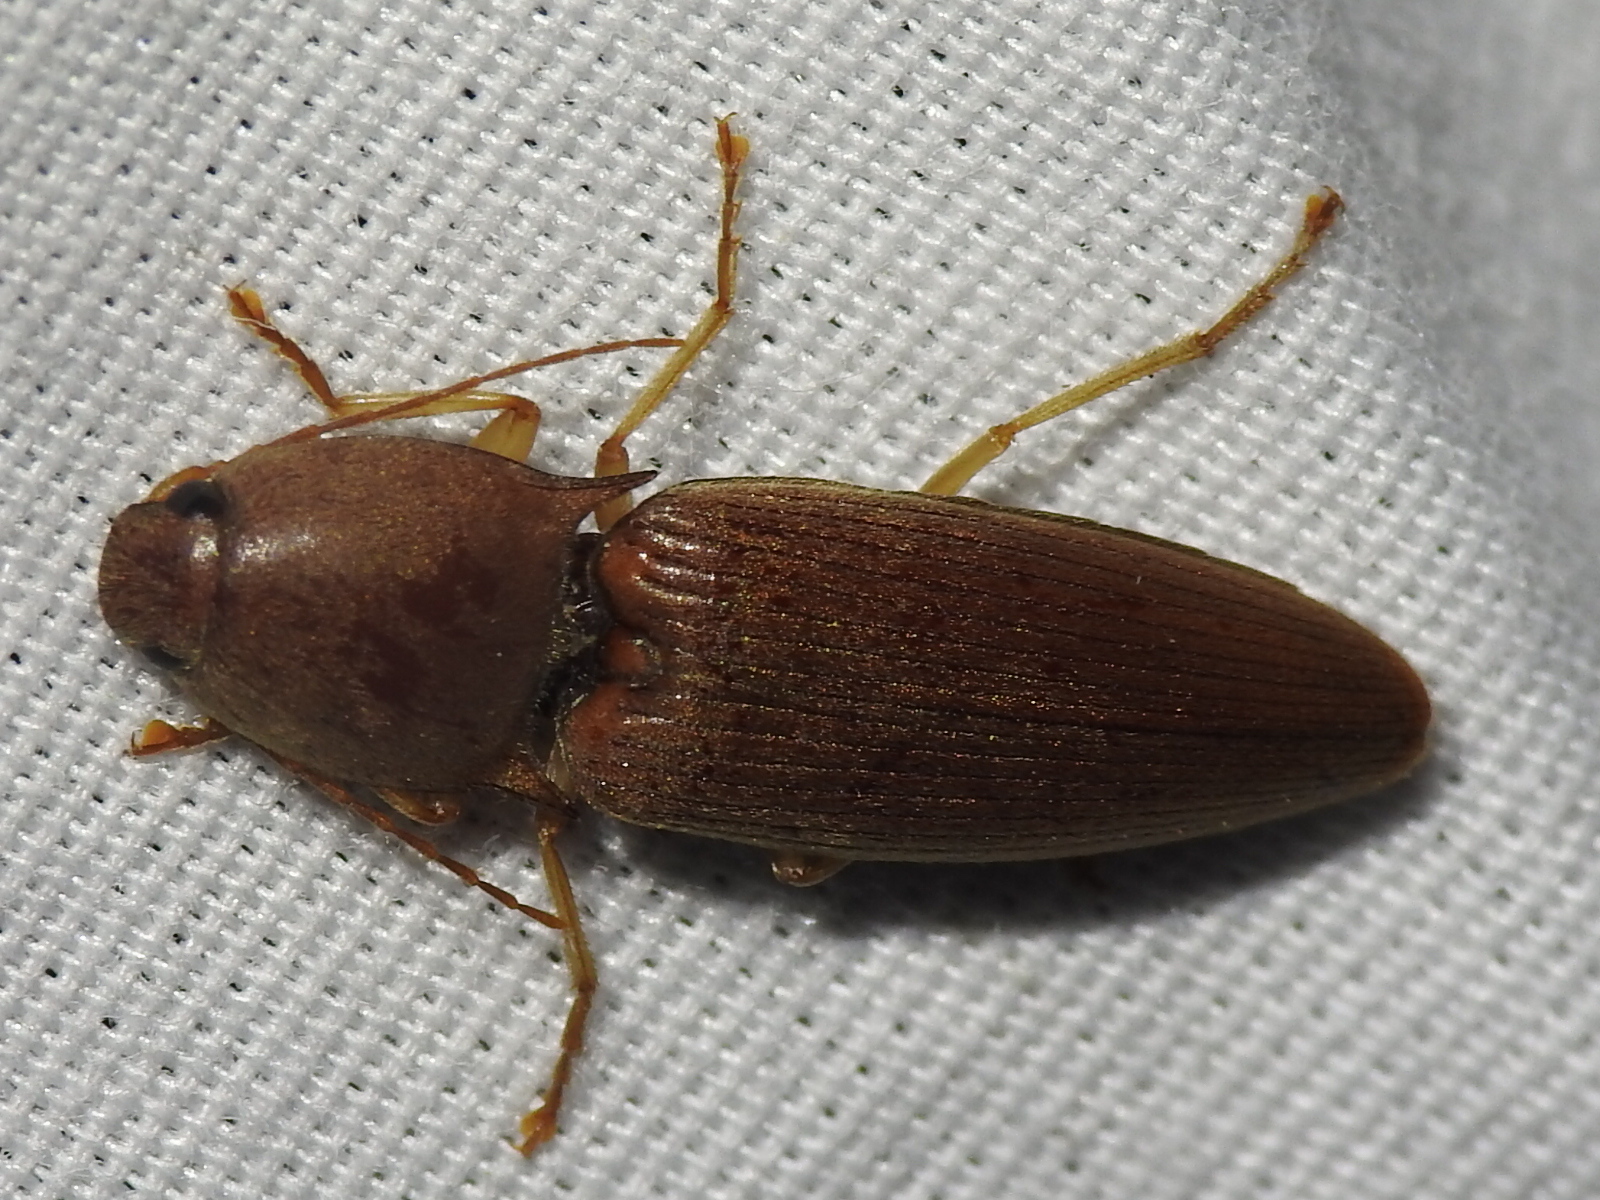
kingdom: Animalia
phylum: Arthropoda
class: Insecta
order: Coleoptera
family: Elateridae
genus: Monocrepidius
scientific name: Monocrepidius lividus
